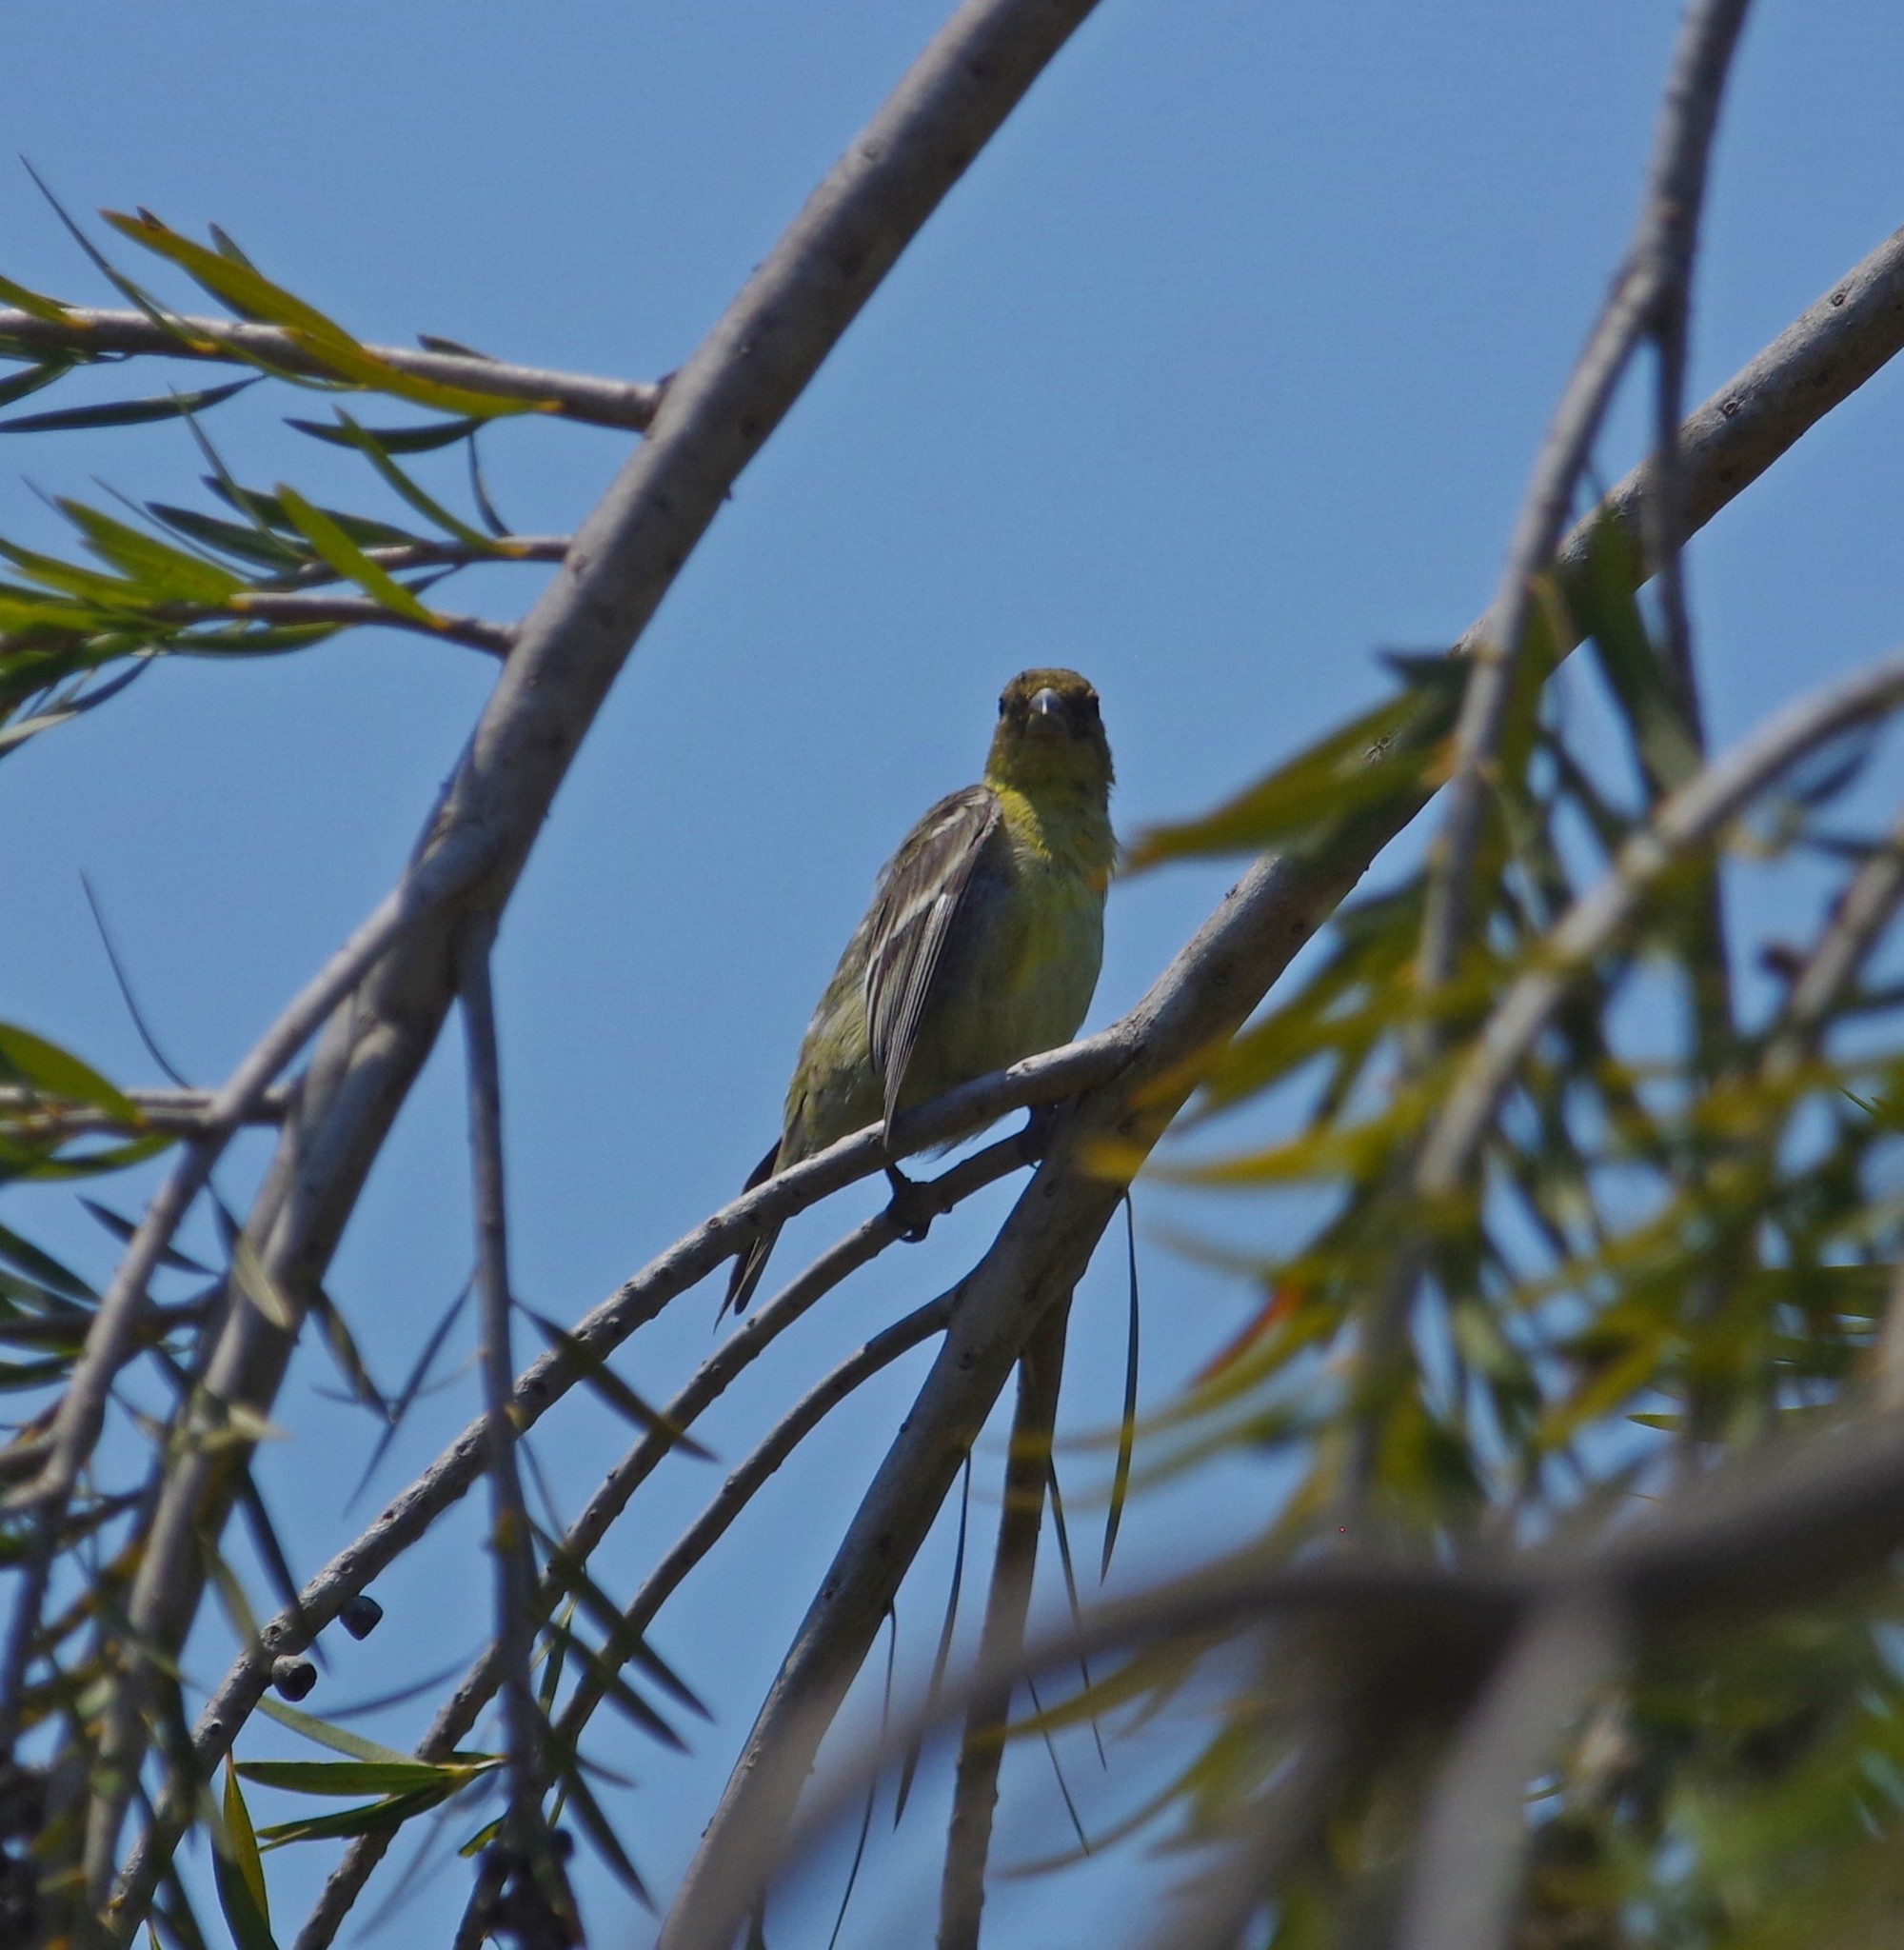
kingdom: Animalia
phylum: Chordata
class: Aves
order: Passeriformes
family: Fringillidae
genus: Spinus
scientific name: Spinus psaltria
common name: Lesser goldfinch
